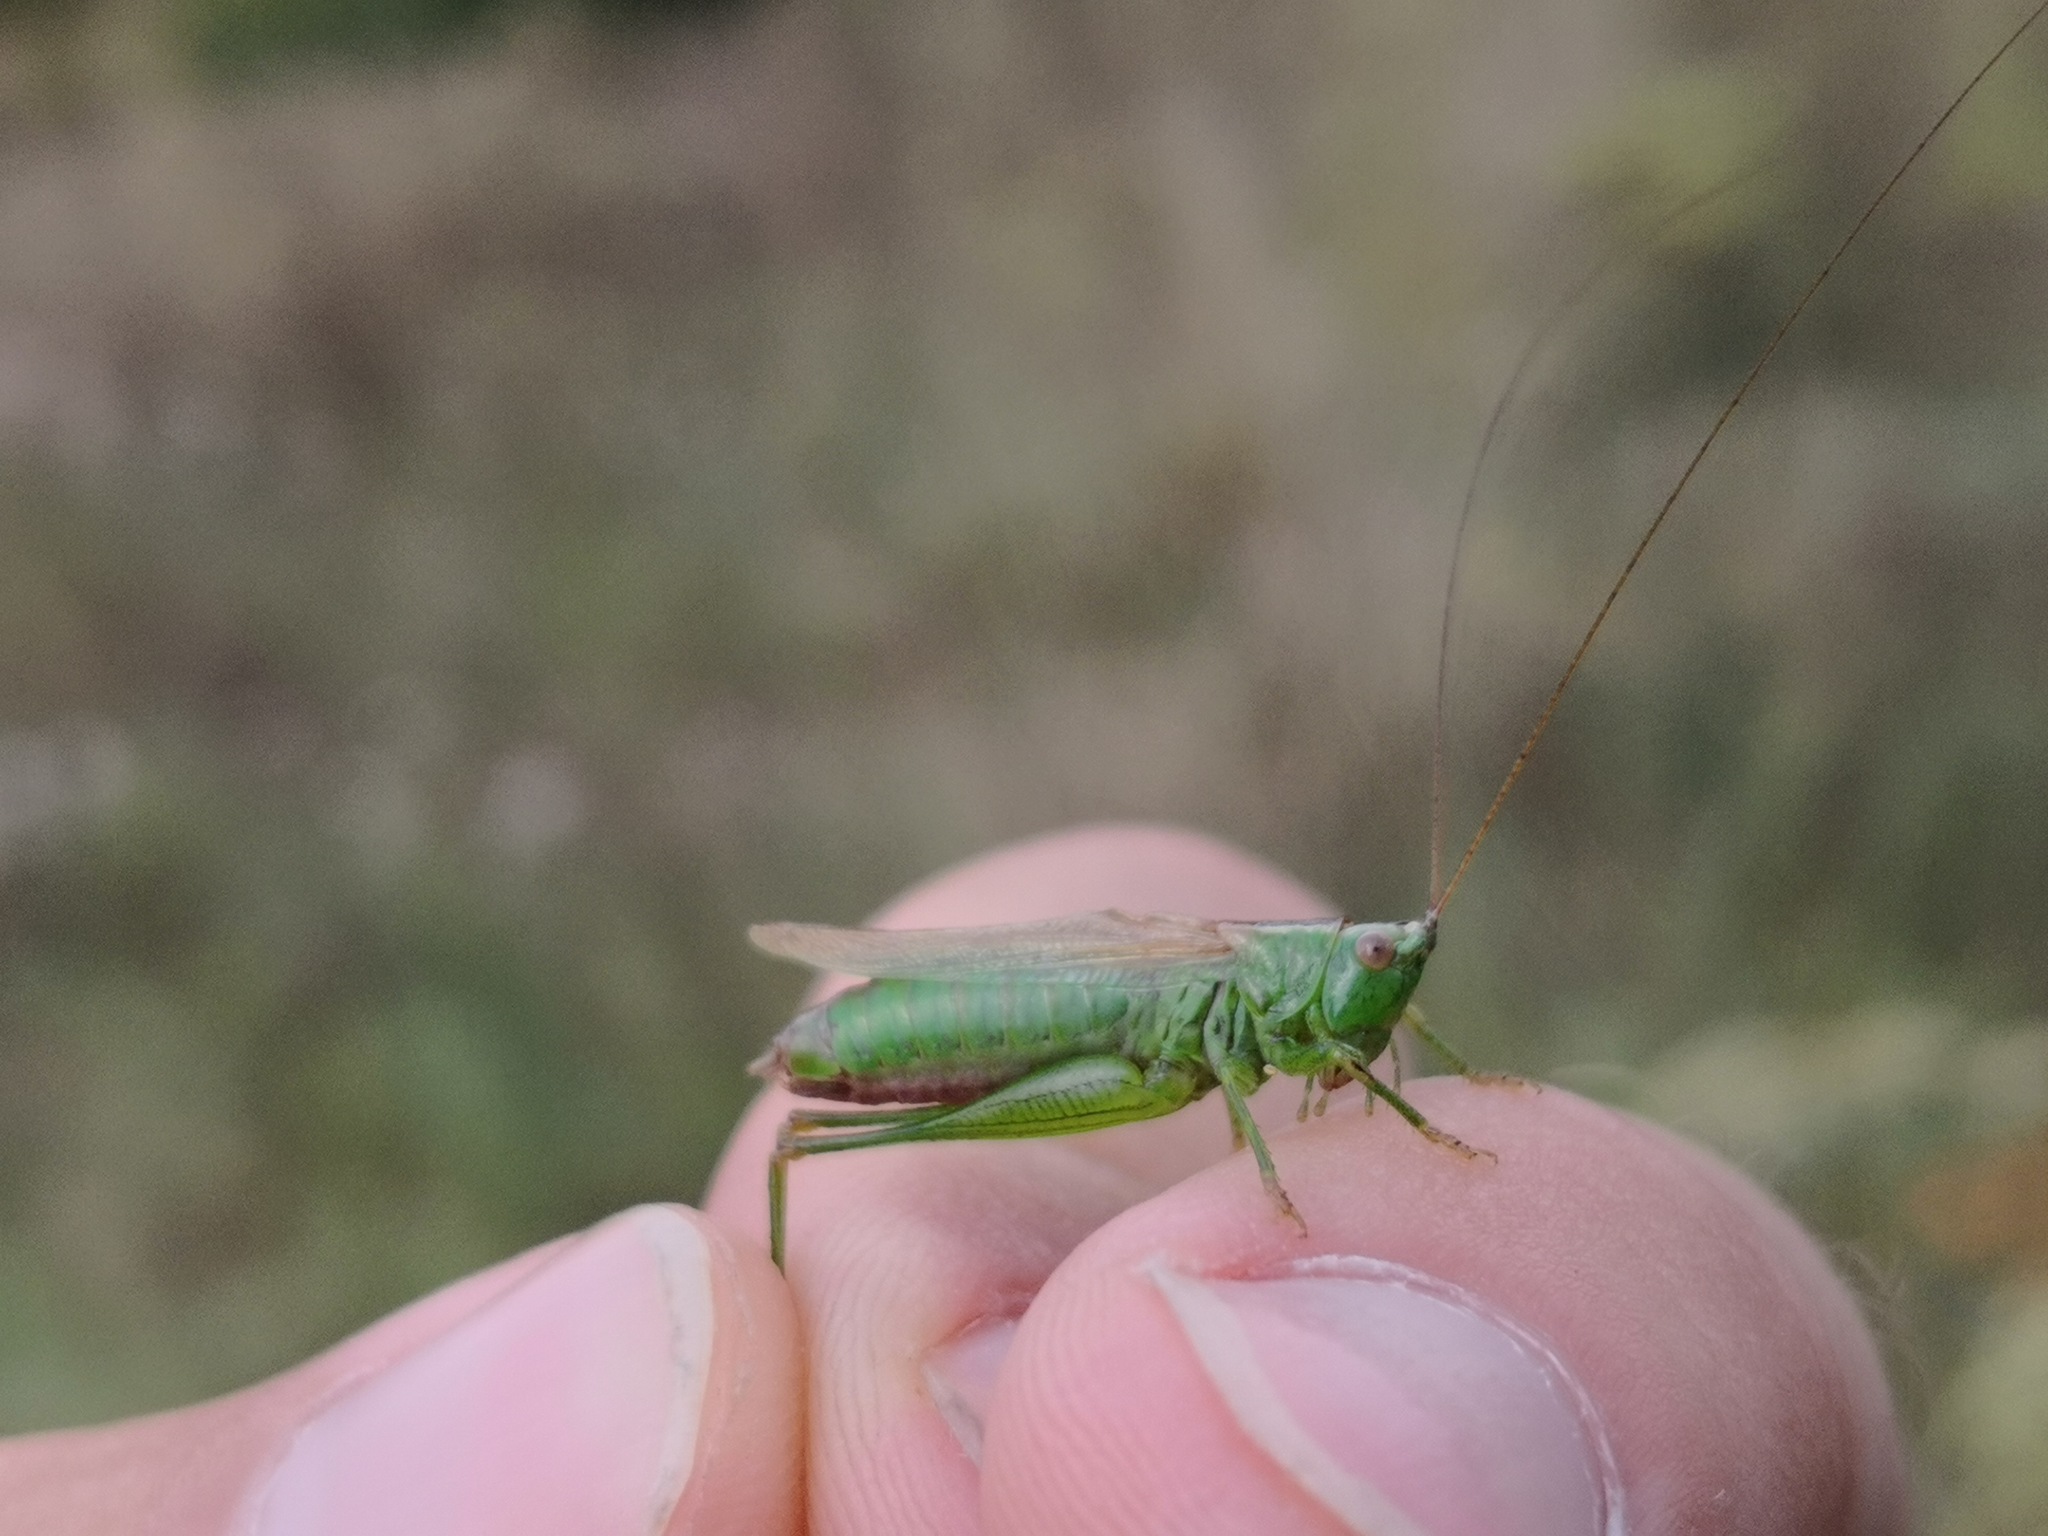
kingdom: Animalia
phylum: Arthropoda
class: Insecta
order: Orthoptera
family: Tettigoniidae
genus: Conocephalus
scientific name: Conocephalus fuscus
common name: Long-winged conehead
